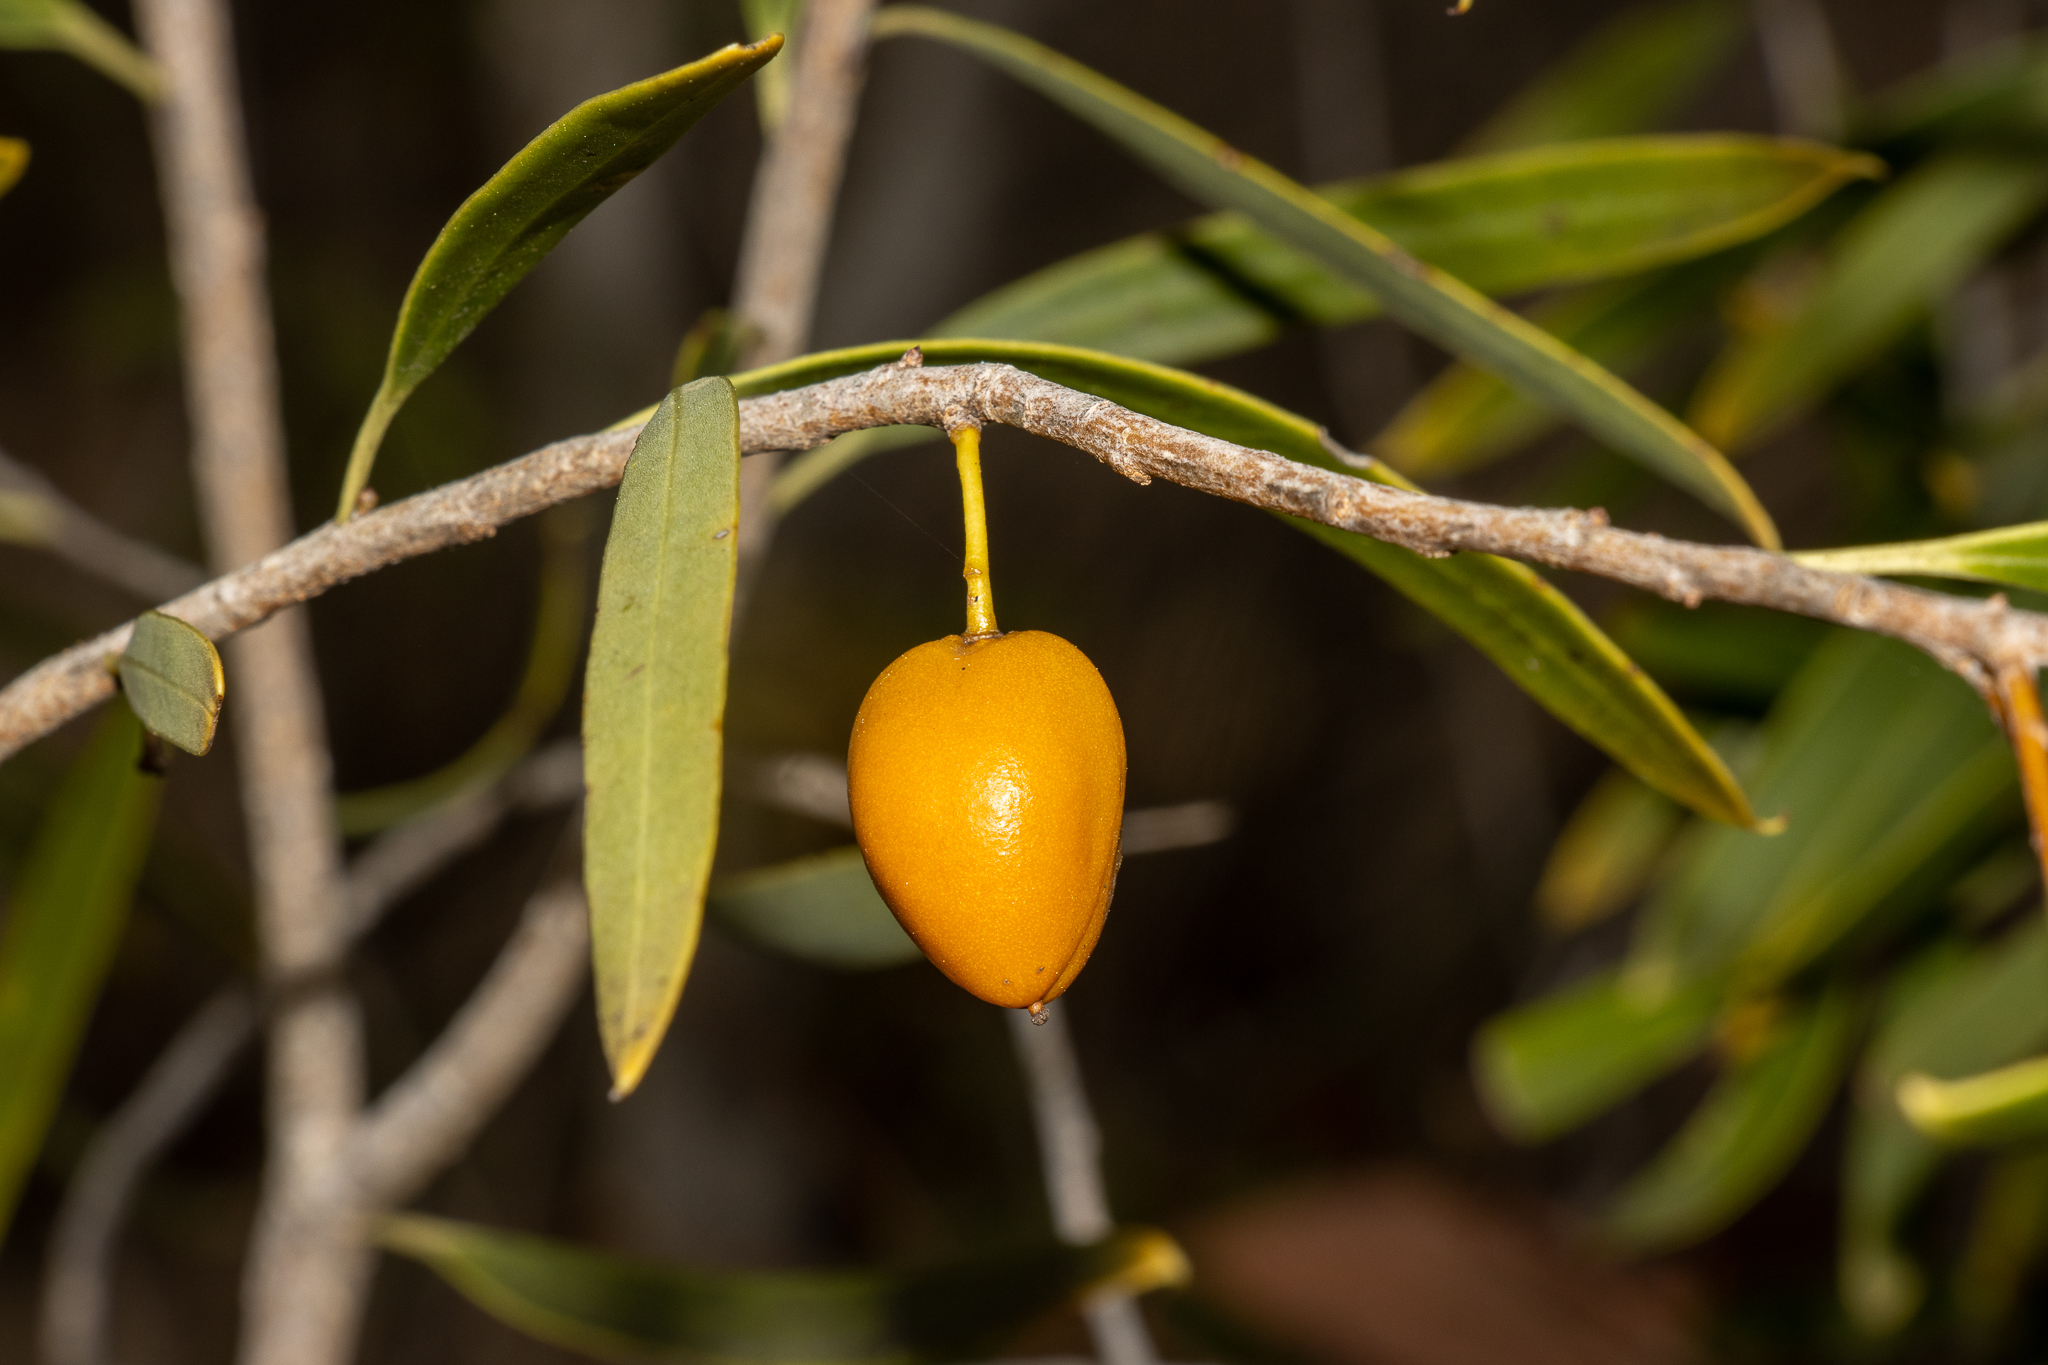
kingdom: Plantae
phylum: Tracheophyta
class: Magnoliopsida
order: Apiales
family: Pittosporaceae
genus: Pittosporum
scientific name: Pittosporum angustifolium
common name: Weeping pittosporum
